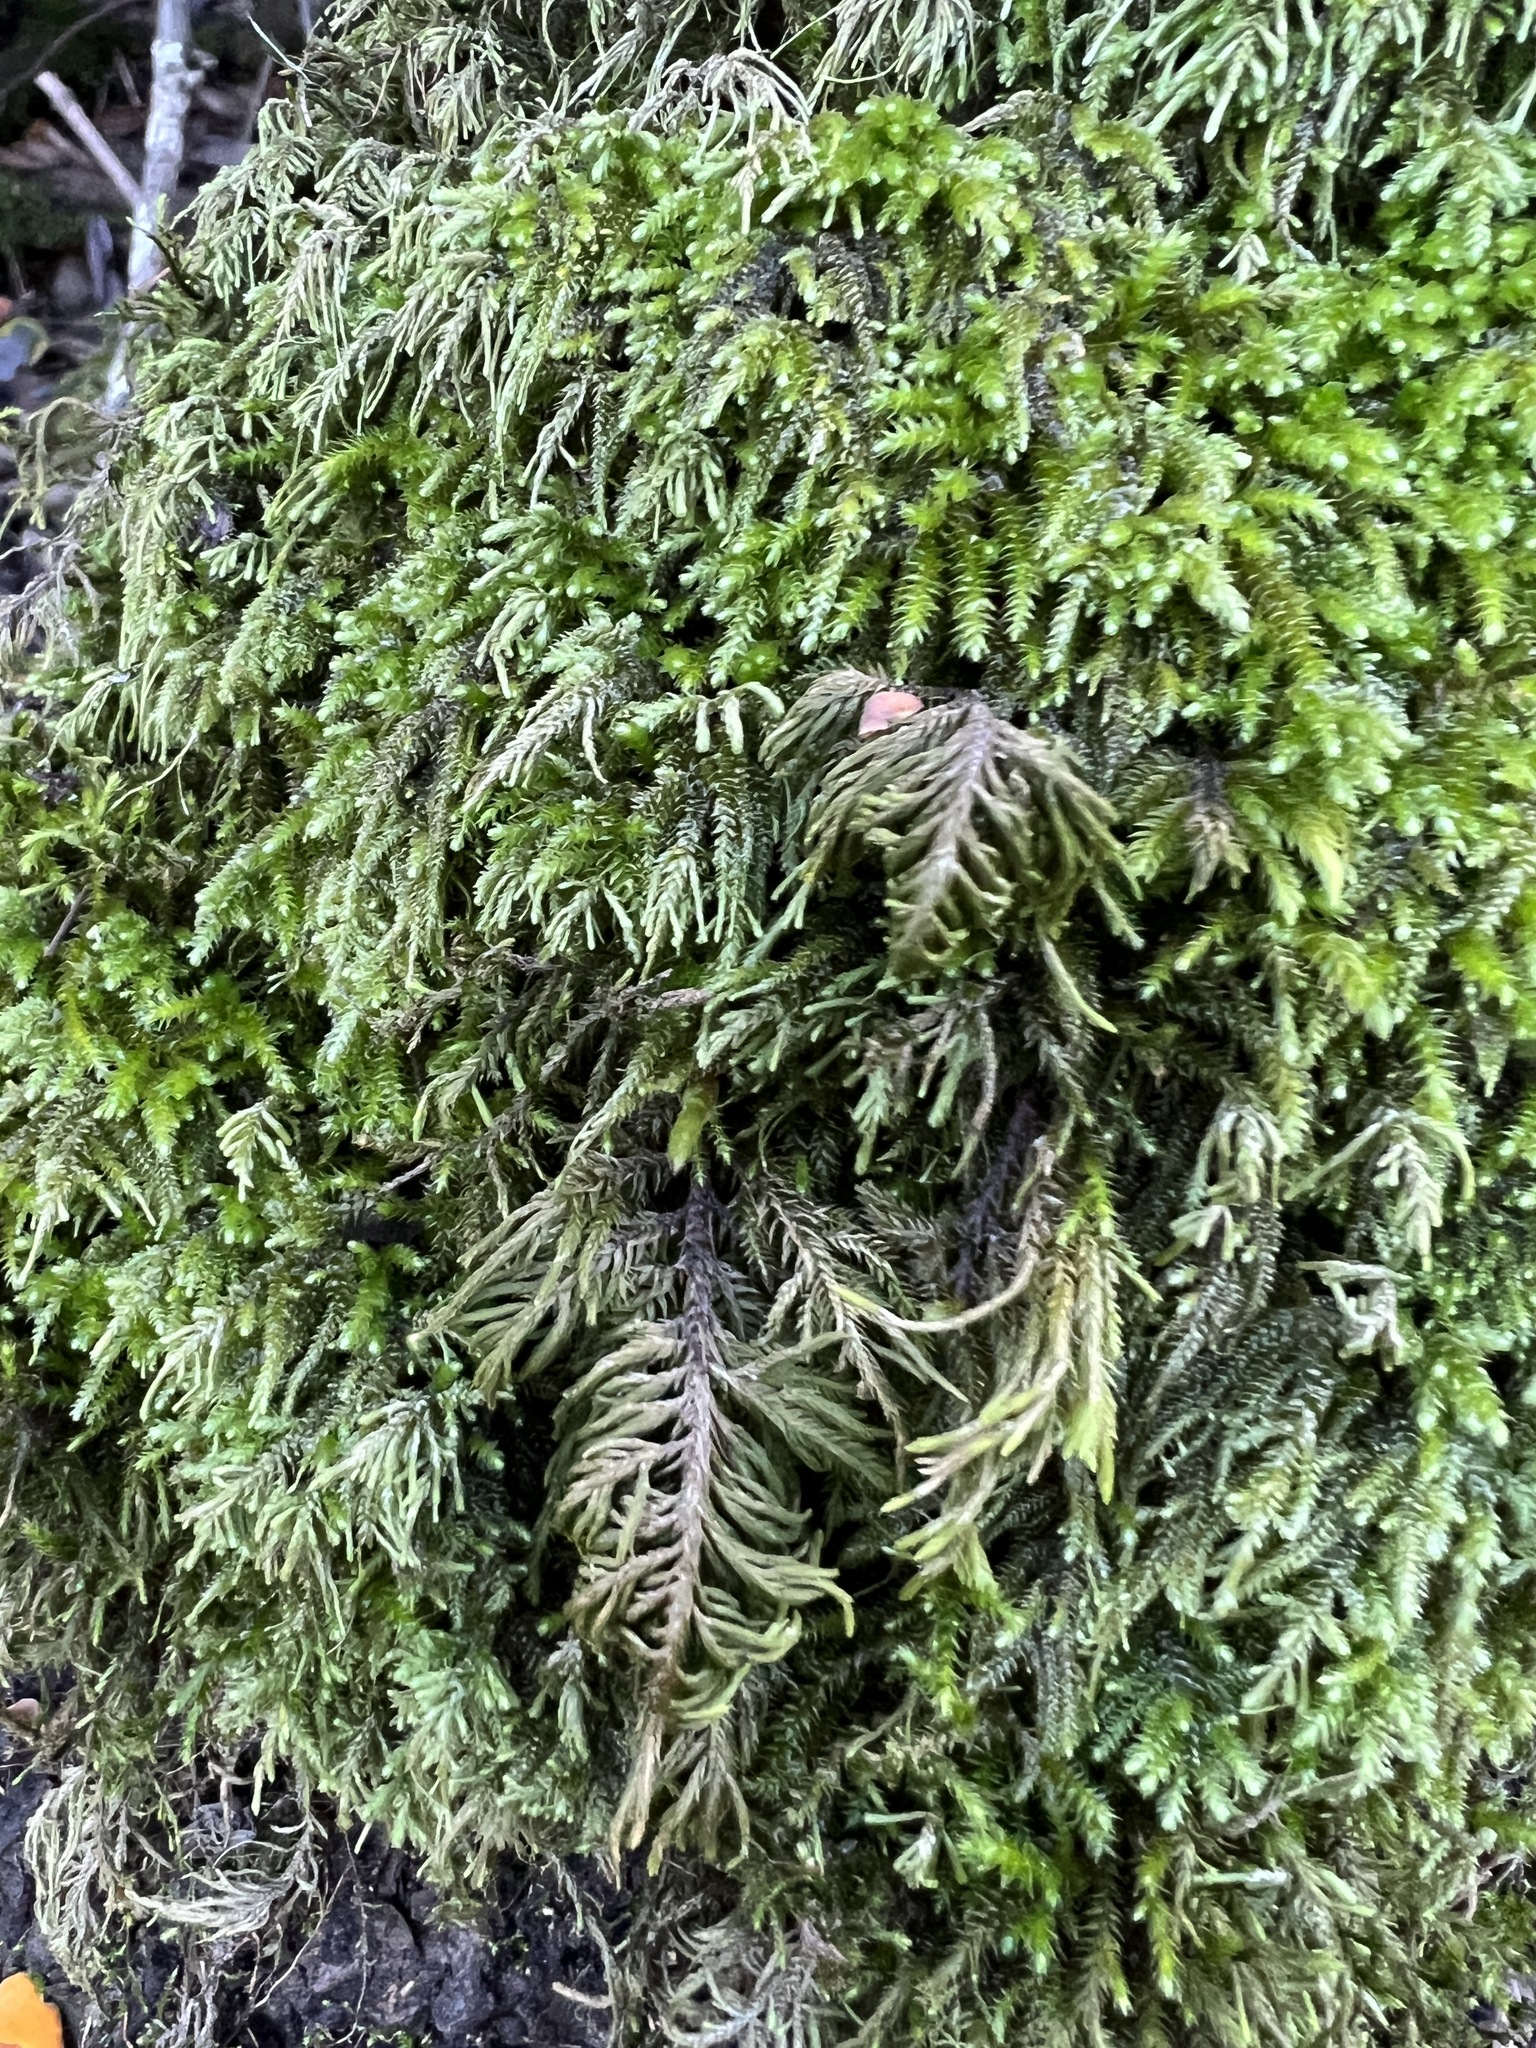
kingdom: Plantae
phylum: Bryophyta
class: Bryopsida
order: Hypnales
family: Cryphaeaceae
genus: Dendroalsia
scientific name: Dendroalsia abietina
